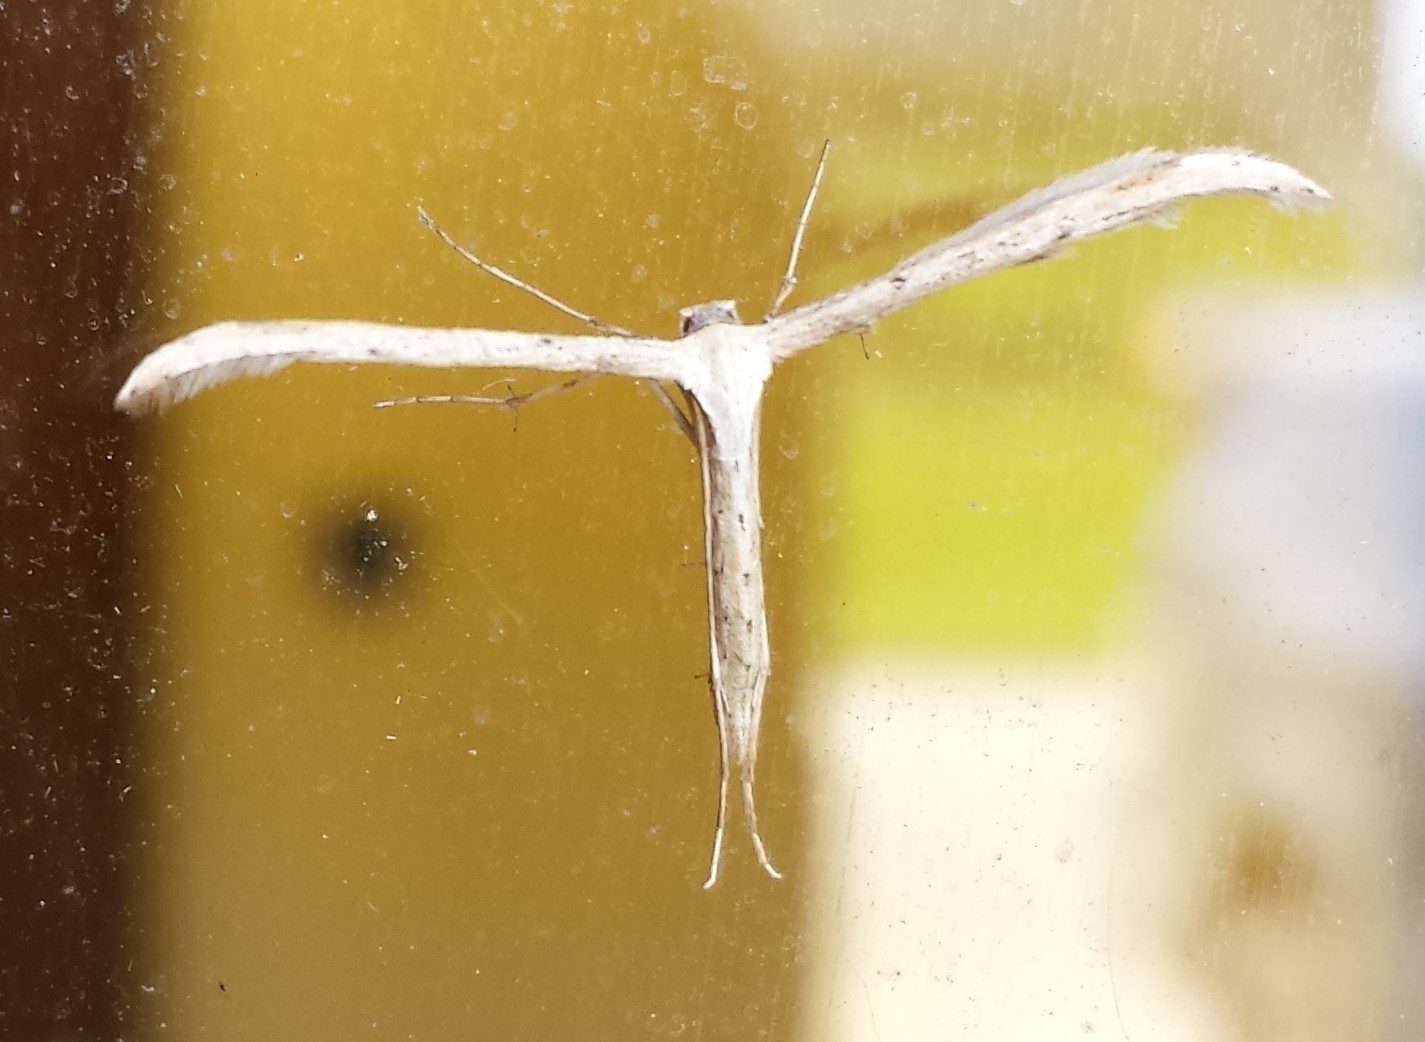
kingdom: Animalia
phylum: Arthropoda
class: Insecta
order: Lepidoptera
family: Pterophoridae
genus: Emmelina
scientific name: Emmelina monodactyla
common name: Common plume
